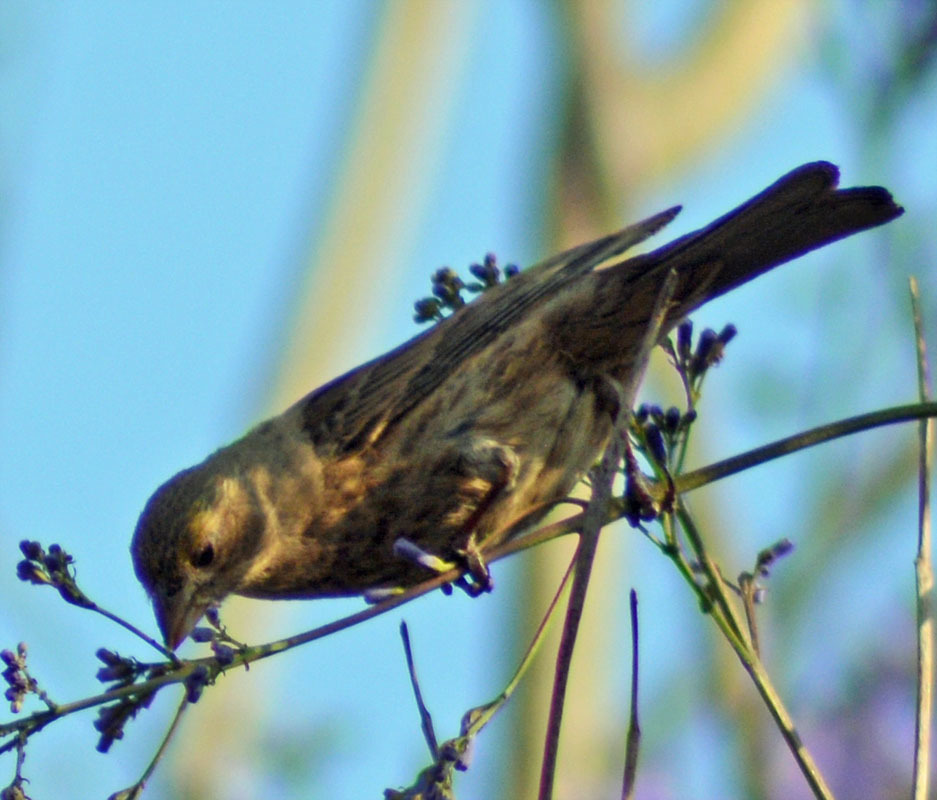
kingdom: Animalia
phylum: Chordata
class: Aves
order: Passeriformes
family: Fringillidae
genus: Haemorhous
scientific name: Haemorhous mexicanus
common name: House finch
